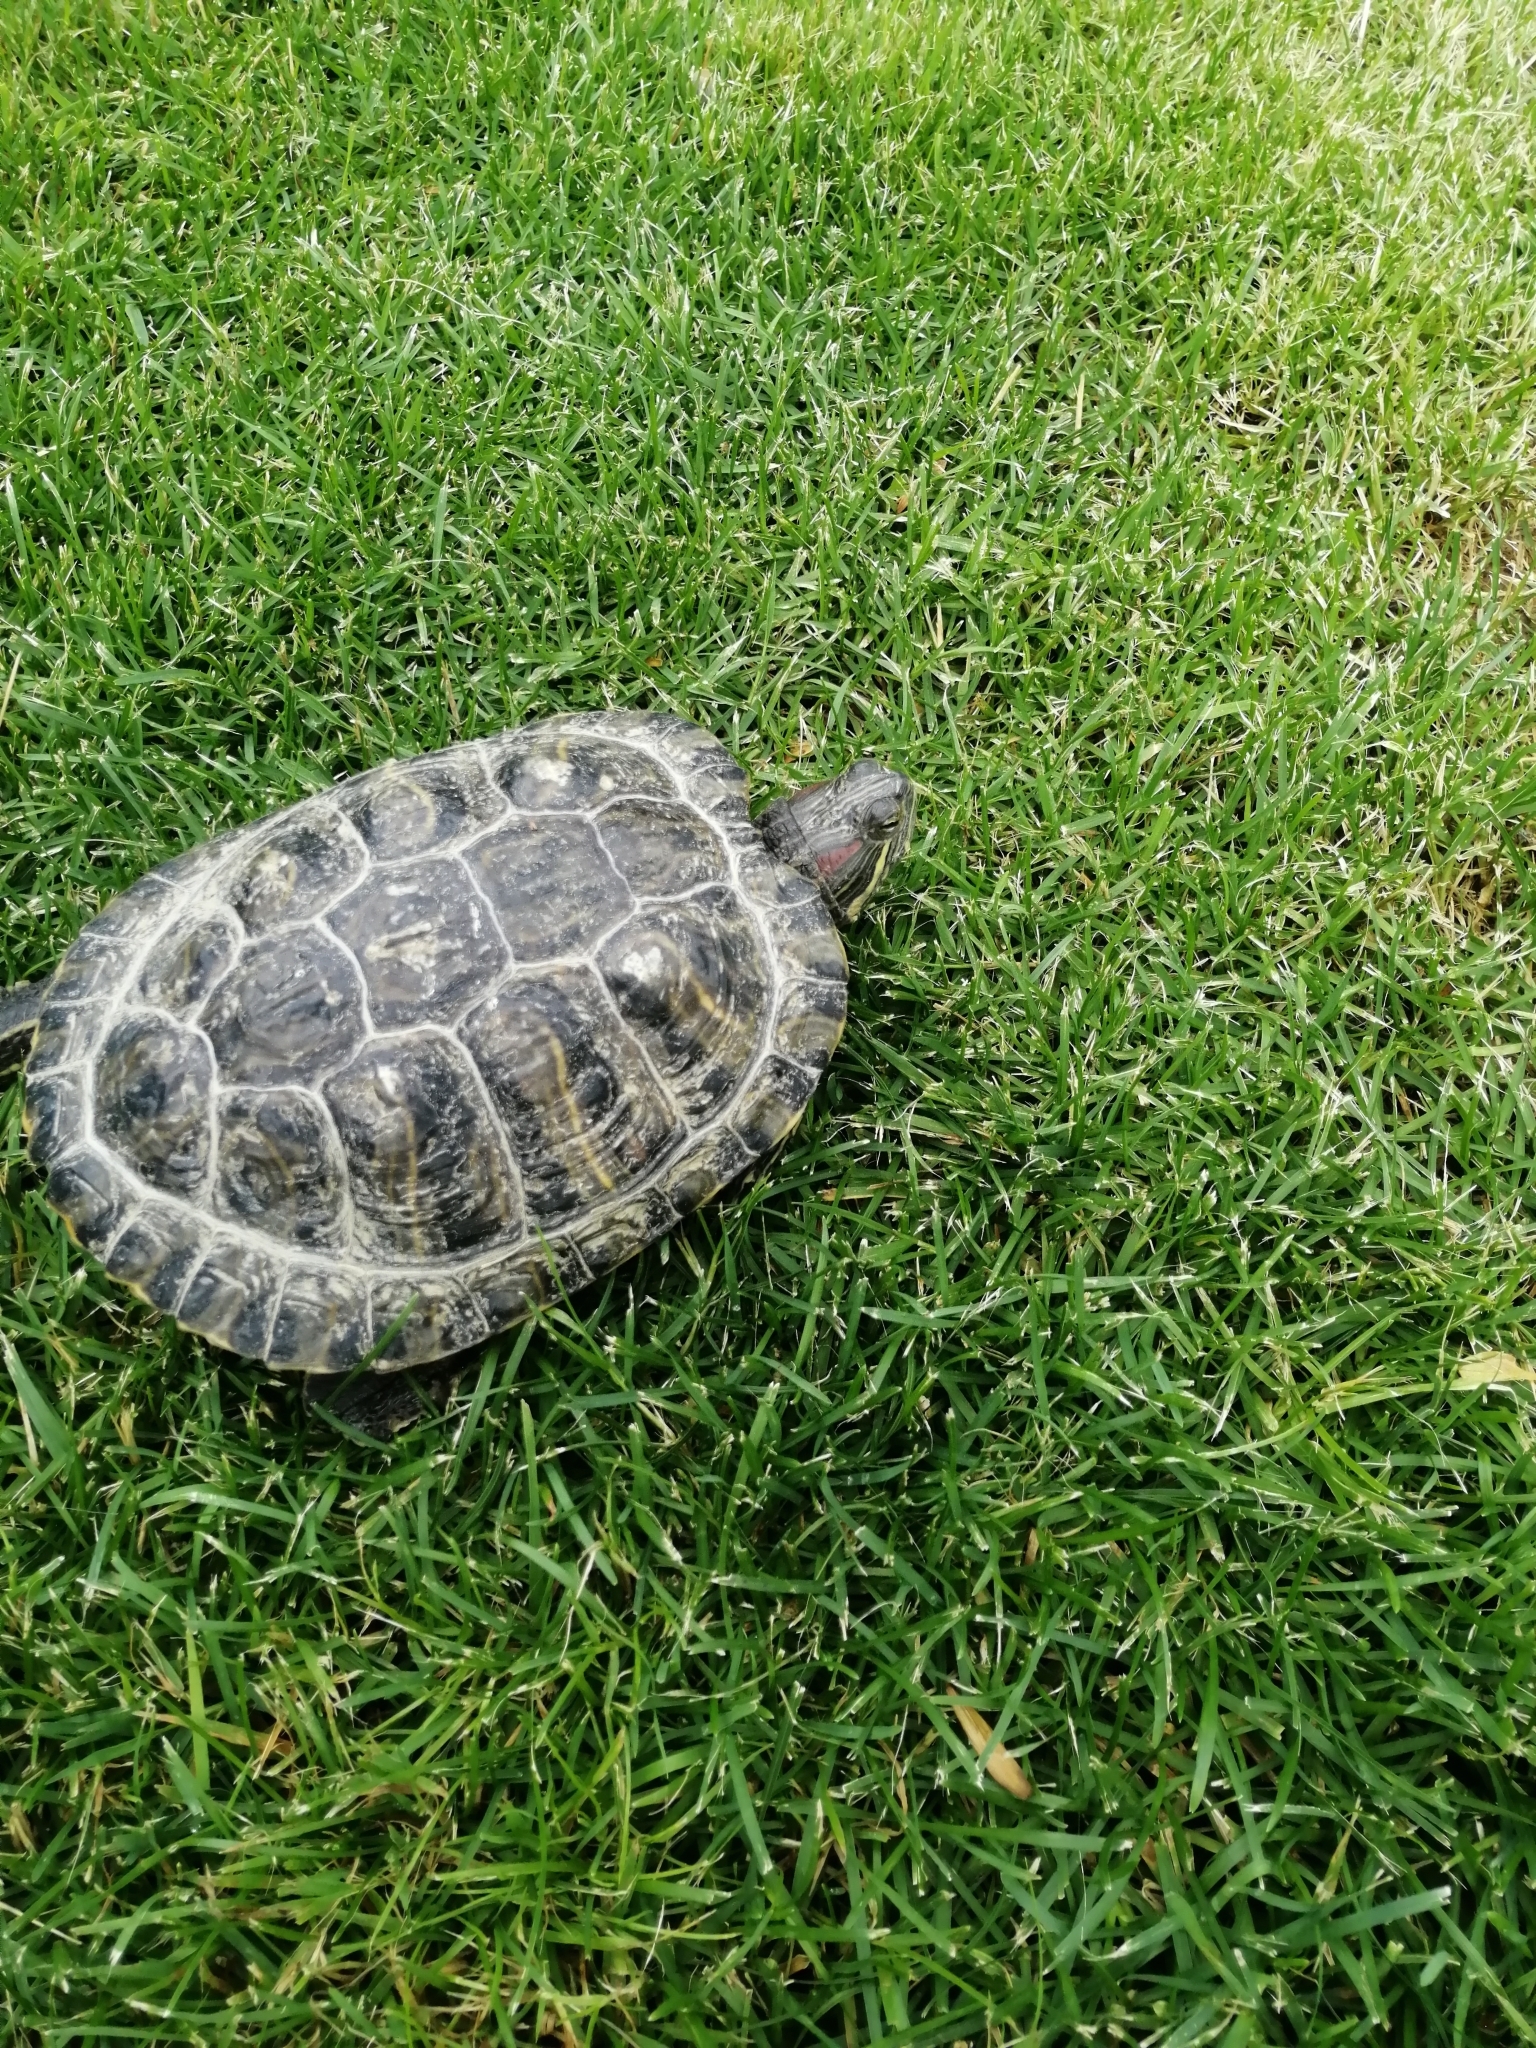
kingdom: Animalia
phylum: Chordata
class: Testudines
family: Emydidae
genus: Trachemys
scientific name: Trachemys scripta
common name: Slider
